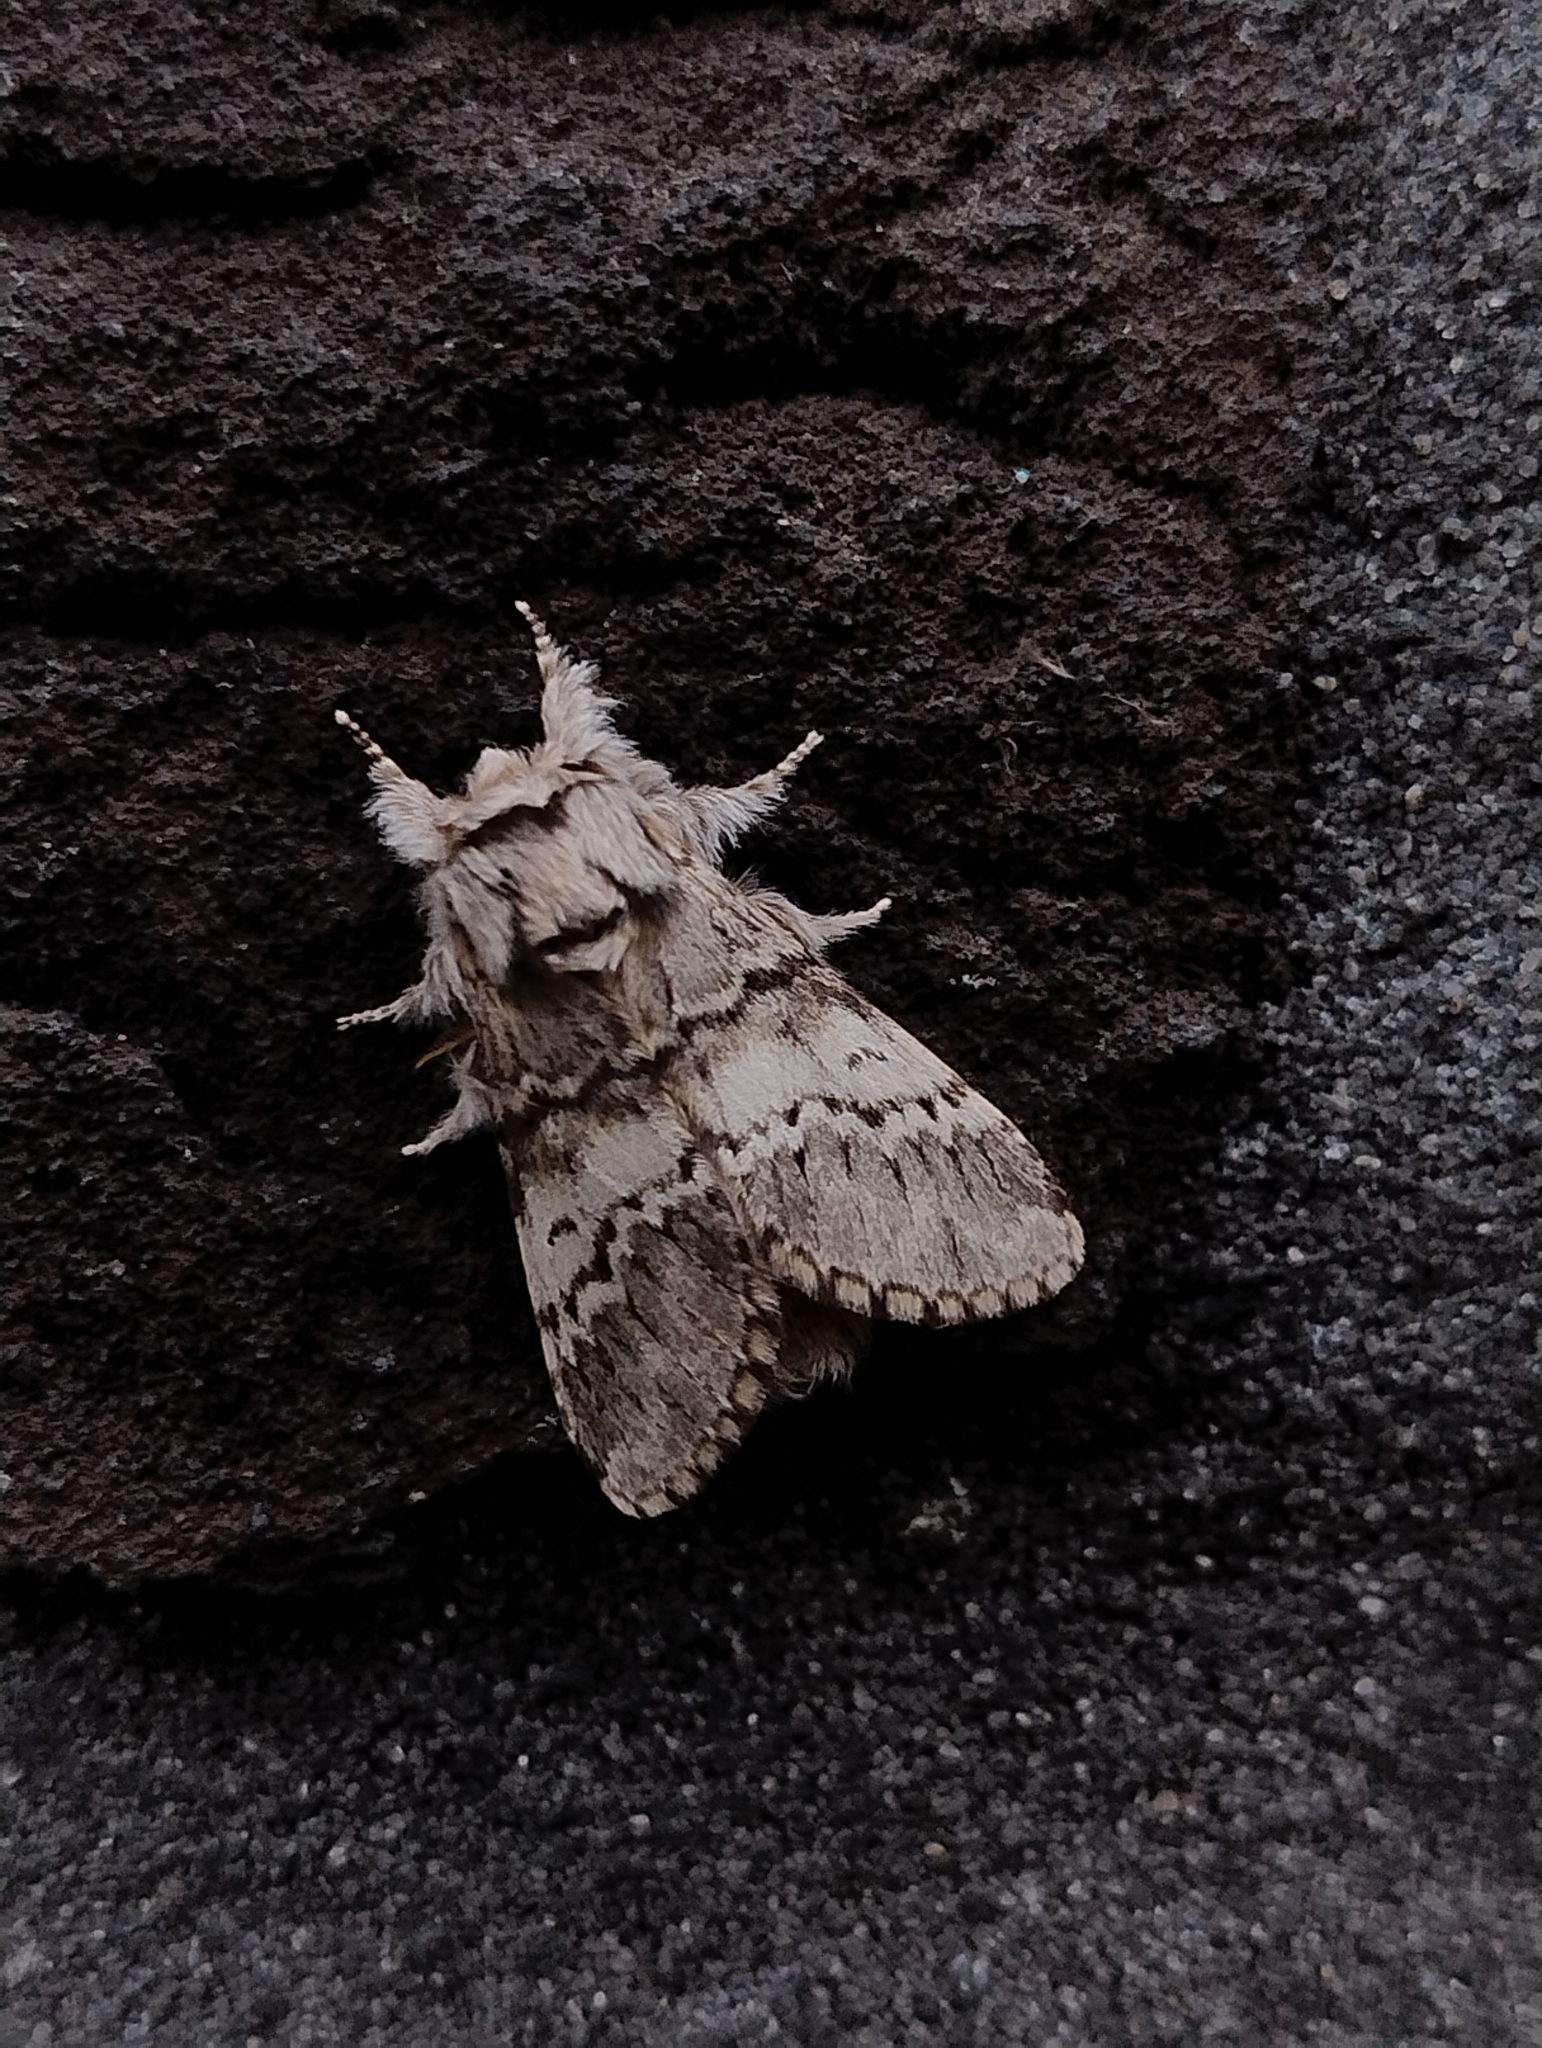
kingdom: Animalia
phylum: Arthropoda
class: Insecta
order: Lepidoptera
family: Notodontidae
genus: Drymonia
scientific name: Drymonia ruficornis
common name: Lunar marbled brown
